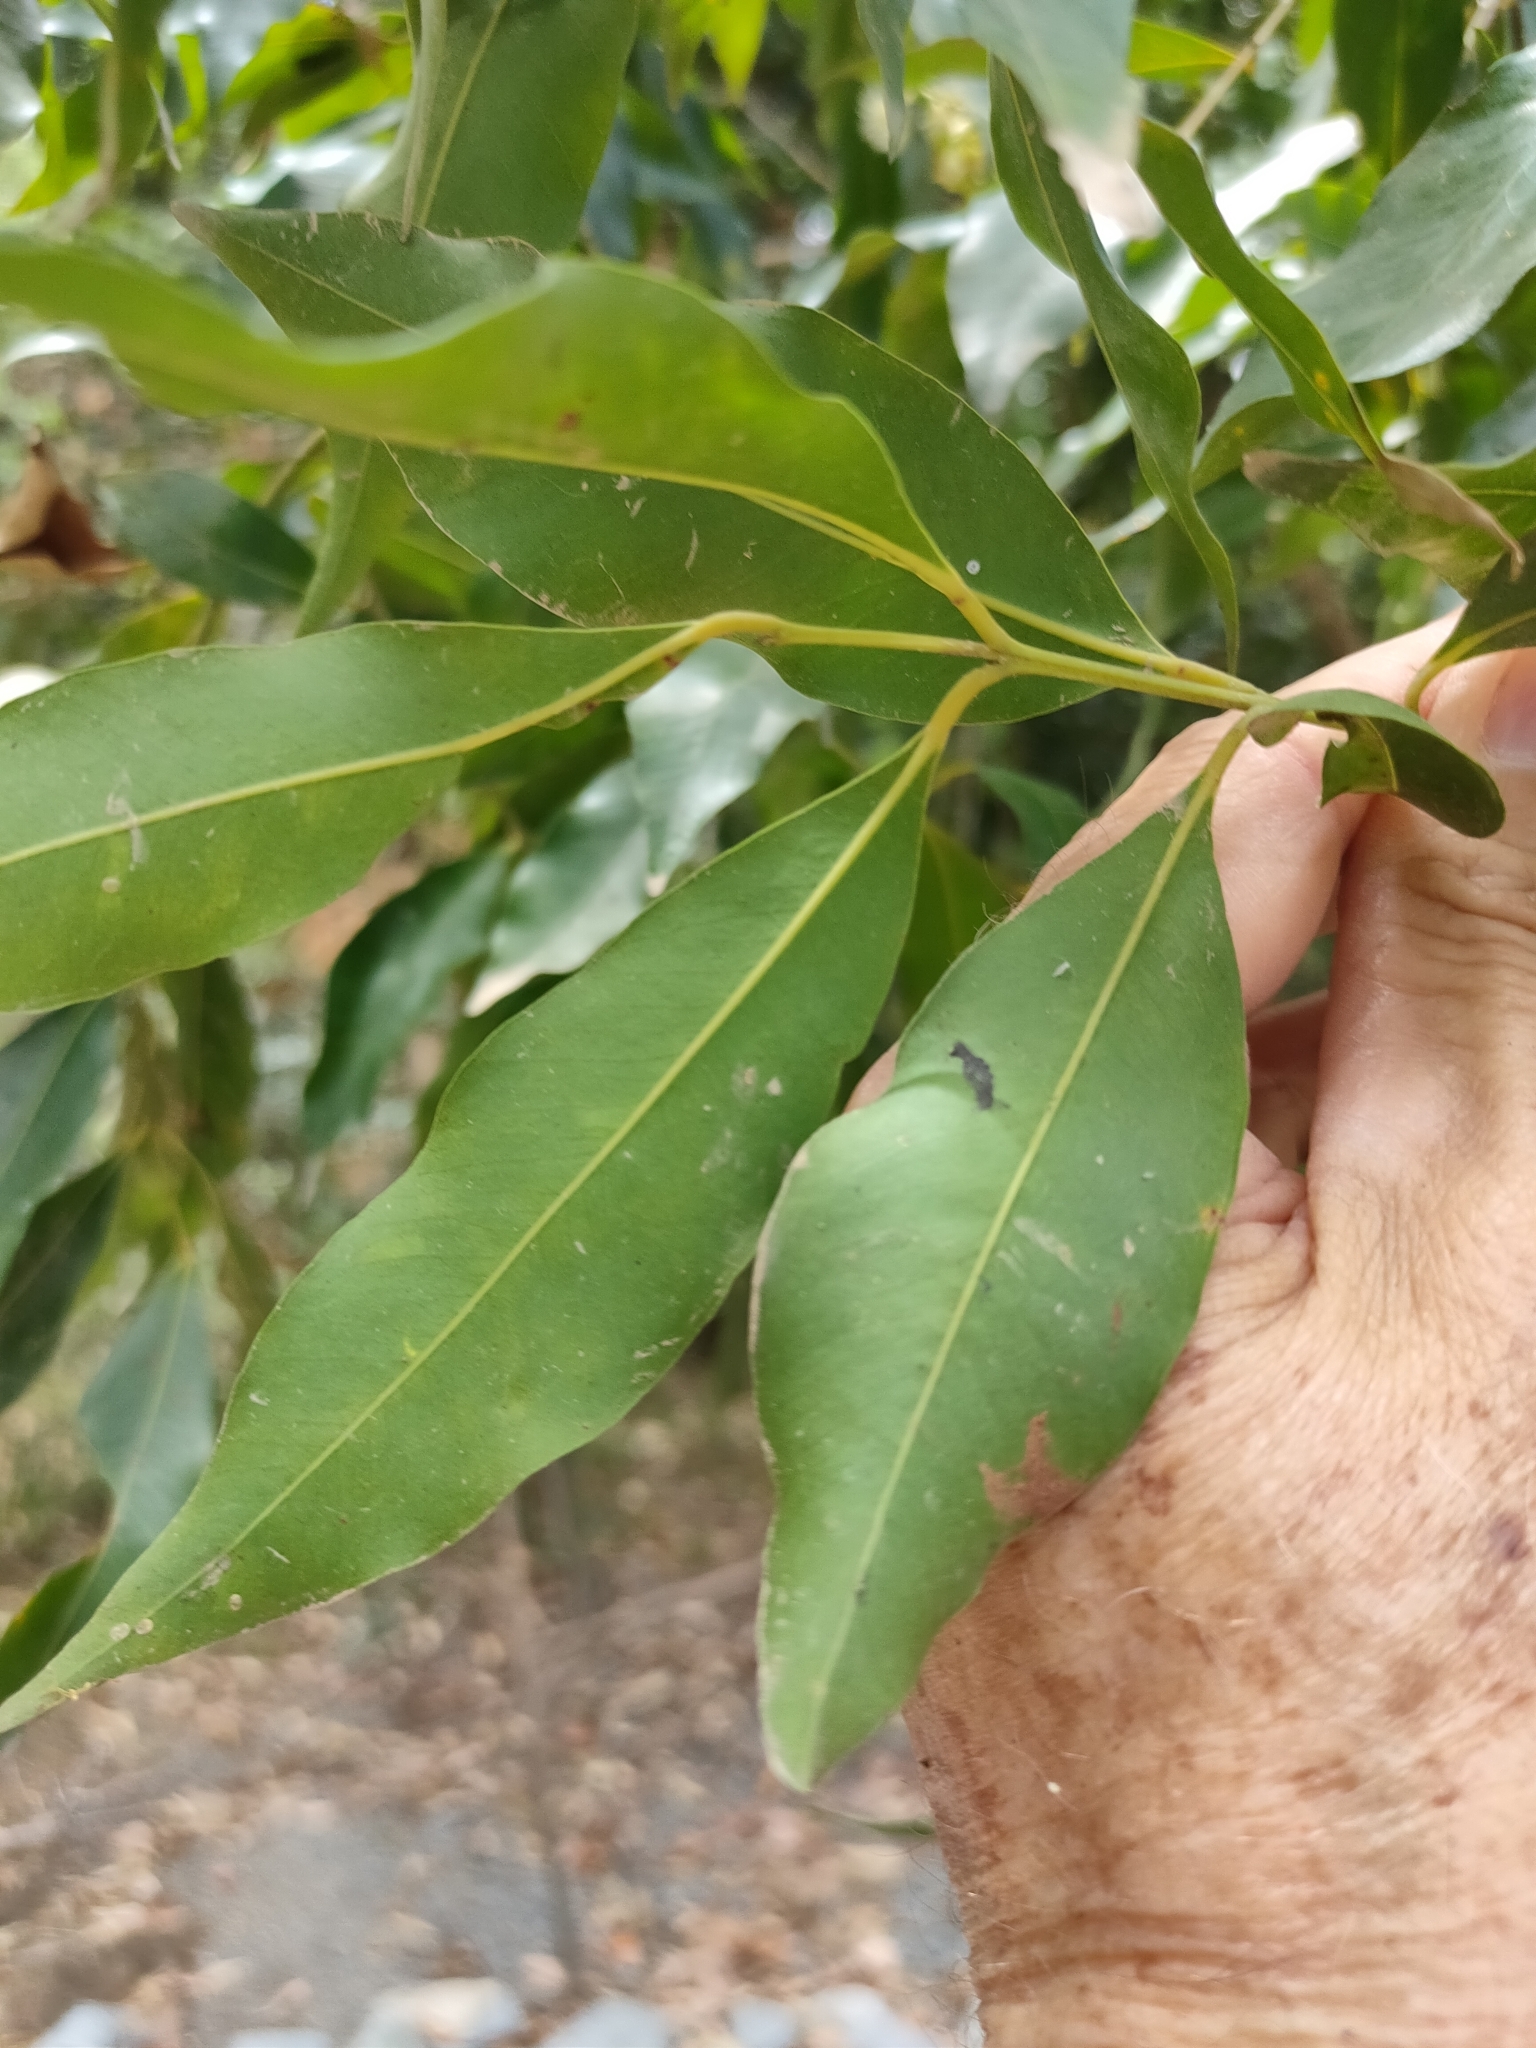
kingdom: Plantae
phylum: Tracheophyta
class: Magnoliopsida
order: Myrtales
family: Myrtaceae
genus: Syzygium
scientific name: Syzygium floribundum
